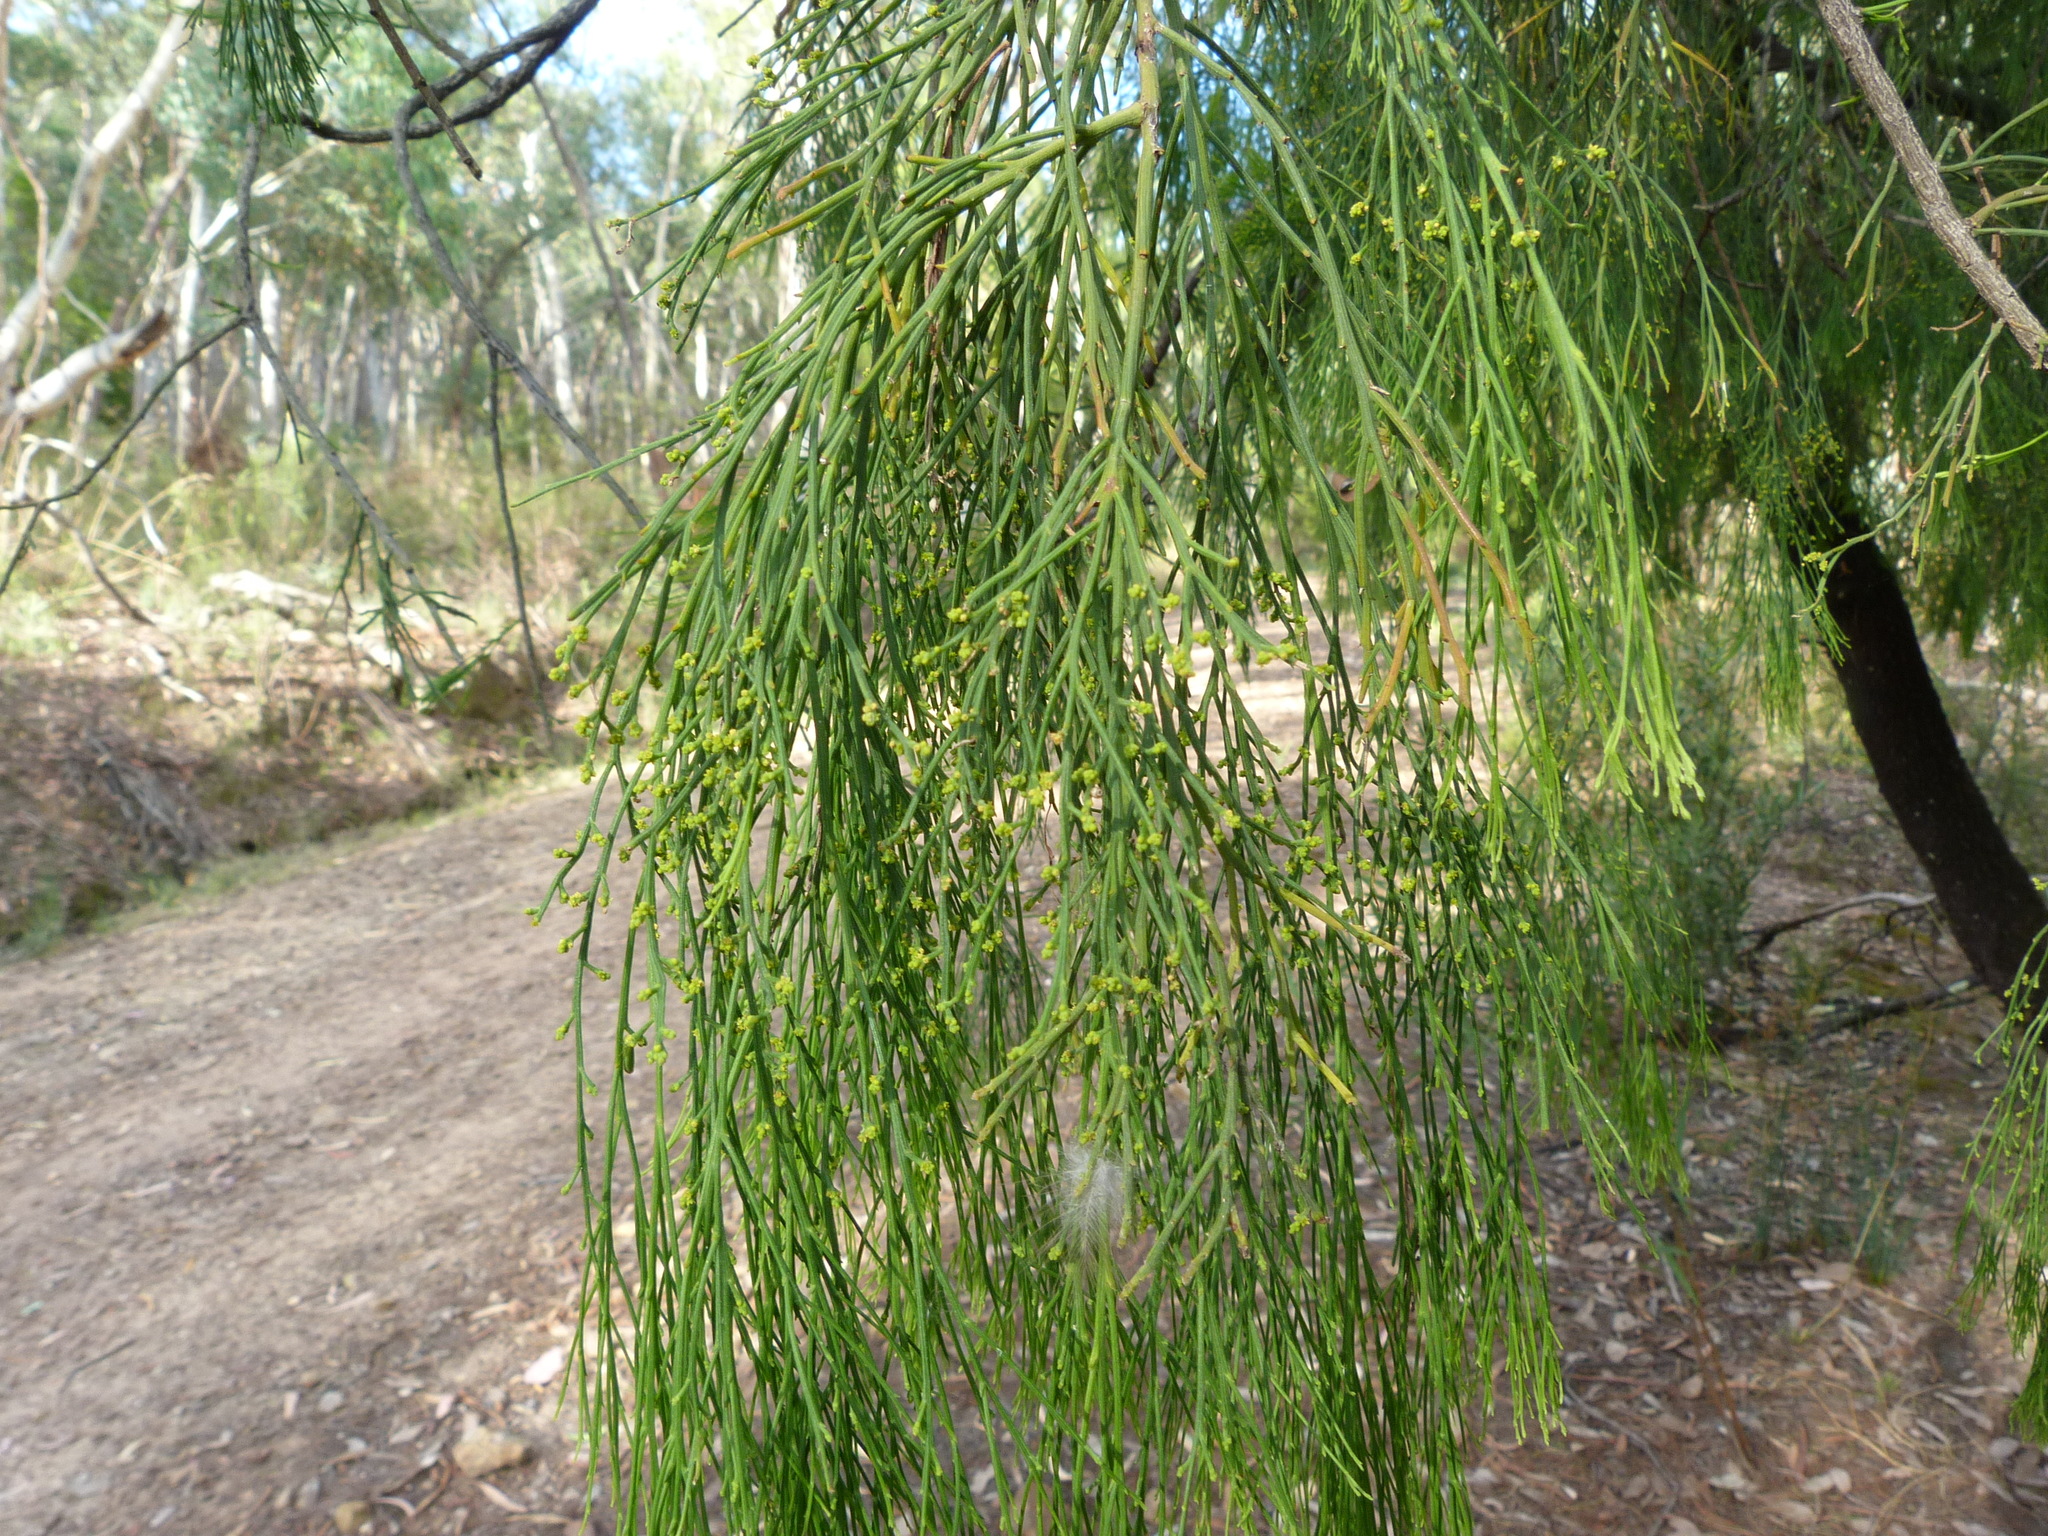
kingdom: Plantae
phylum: Tracheophyta
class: Magnoliopsida
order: Santalales
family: Santalaceae
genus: Exocarpos
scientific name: Exocarpos cupressiformis
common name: Cherry ballart
